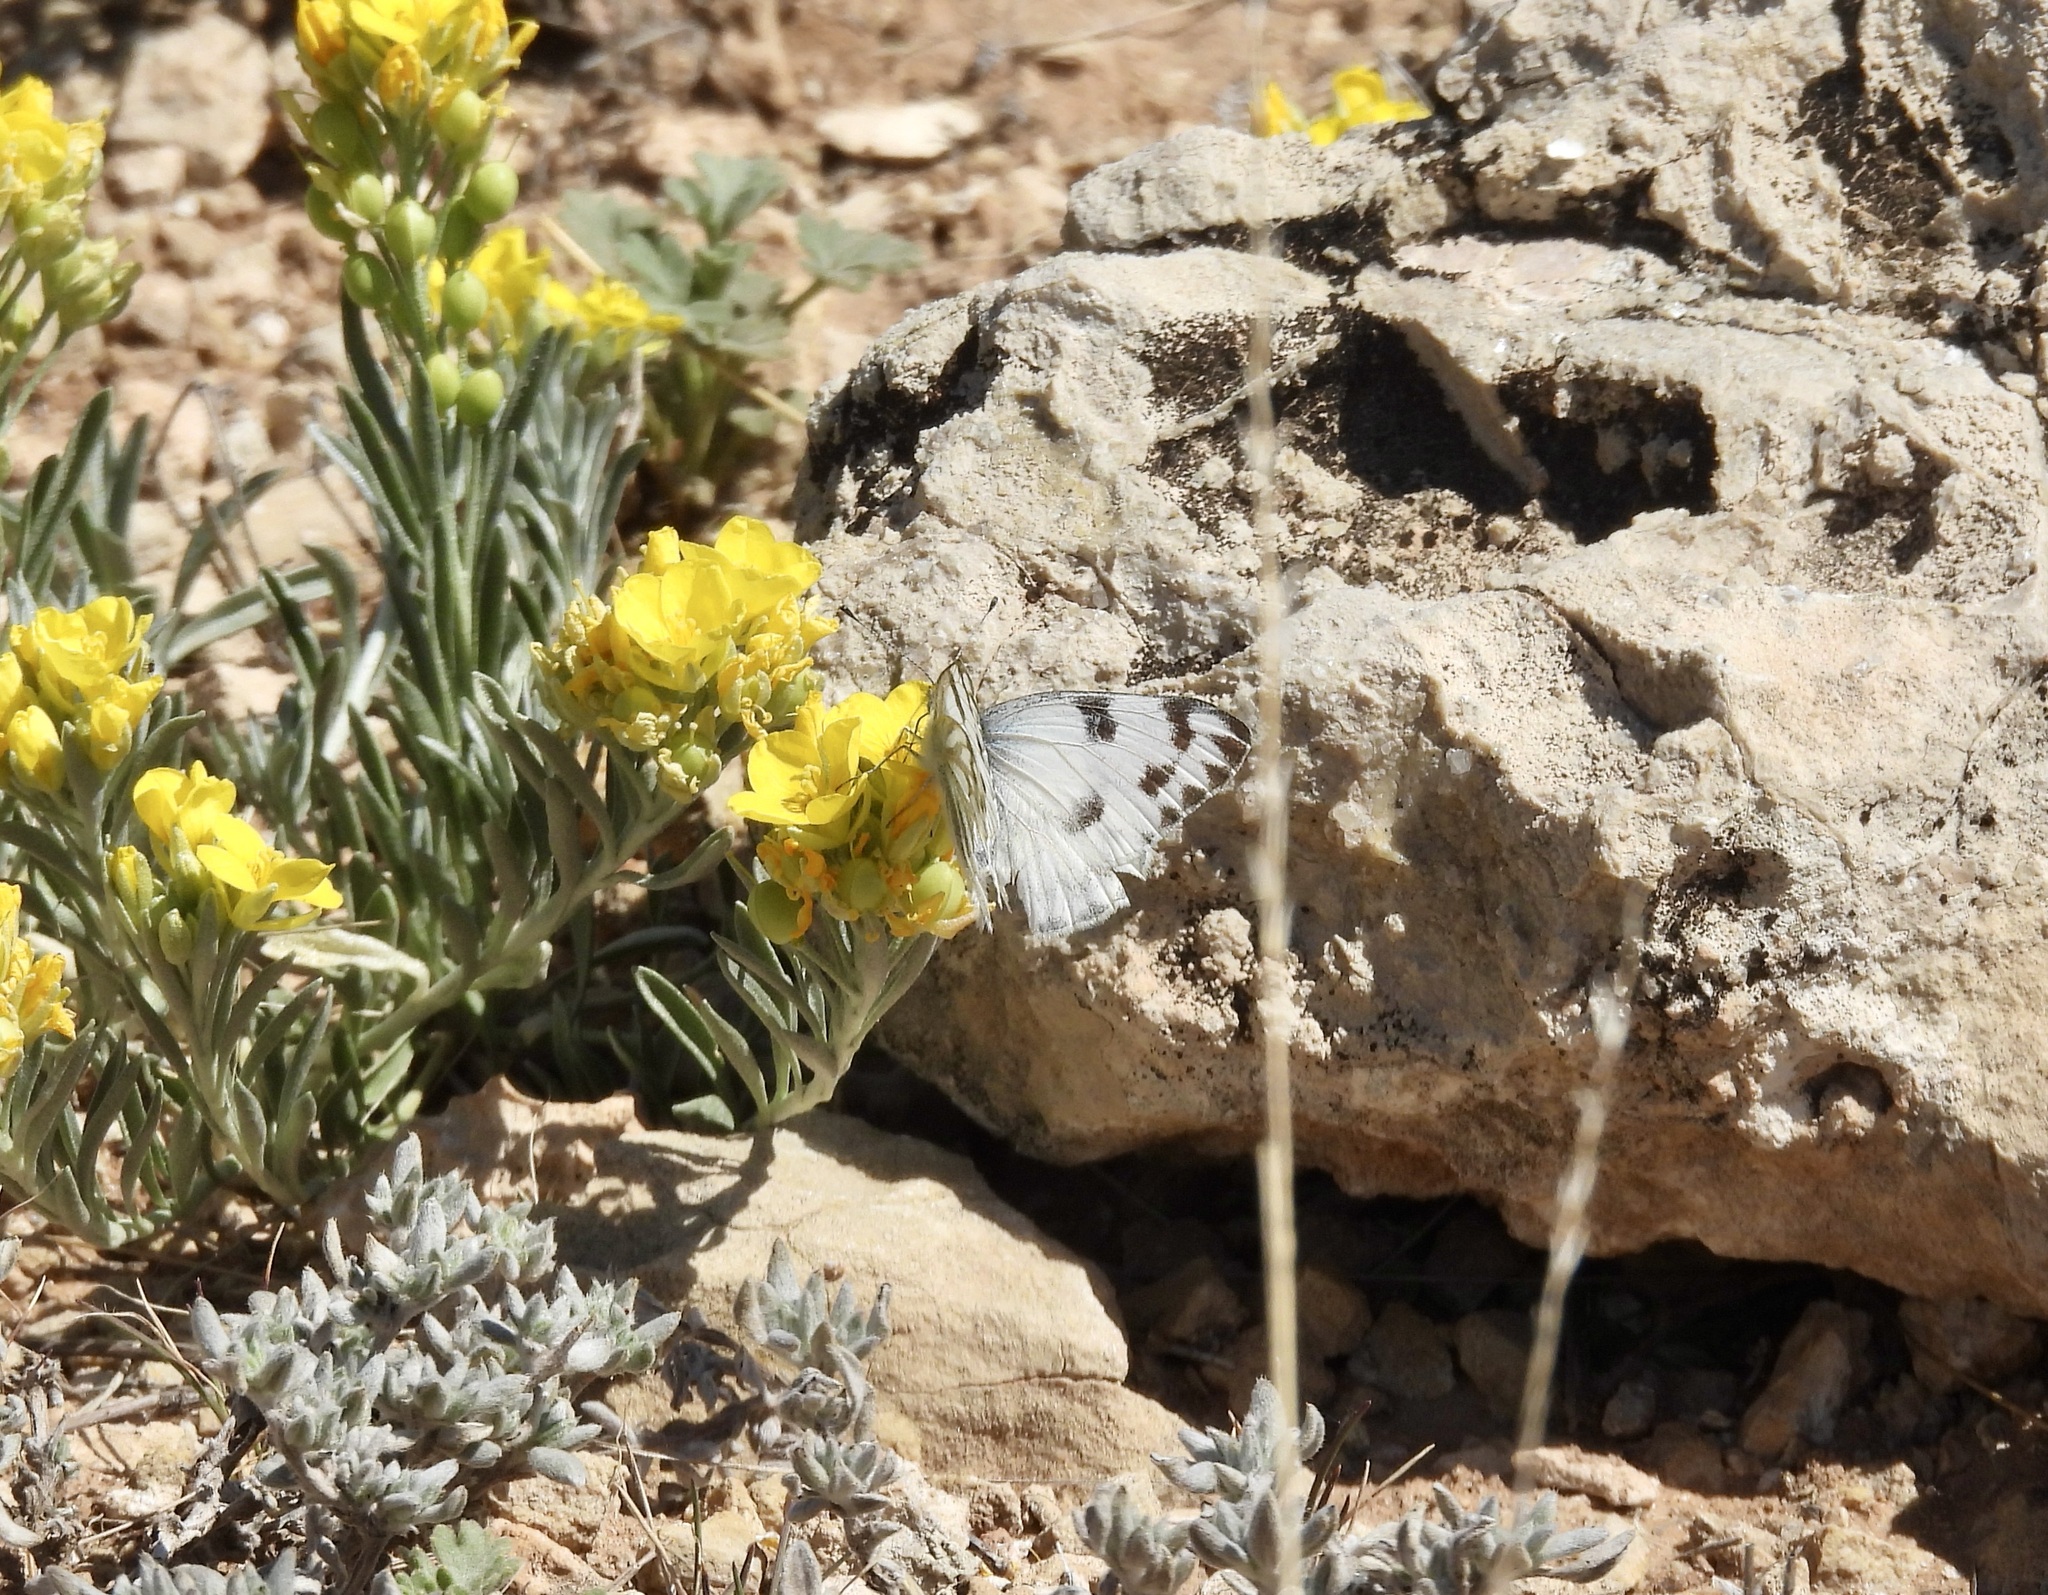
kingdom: Animalia
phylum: Arthropoda
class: Insecta
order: Lepidoptera
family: Pieridae
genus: Pontia
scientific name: Pontia protodice
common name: Checkered white
